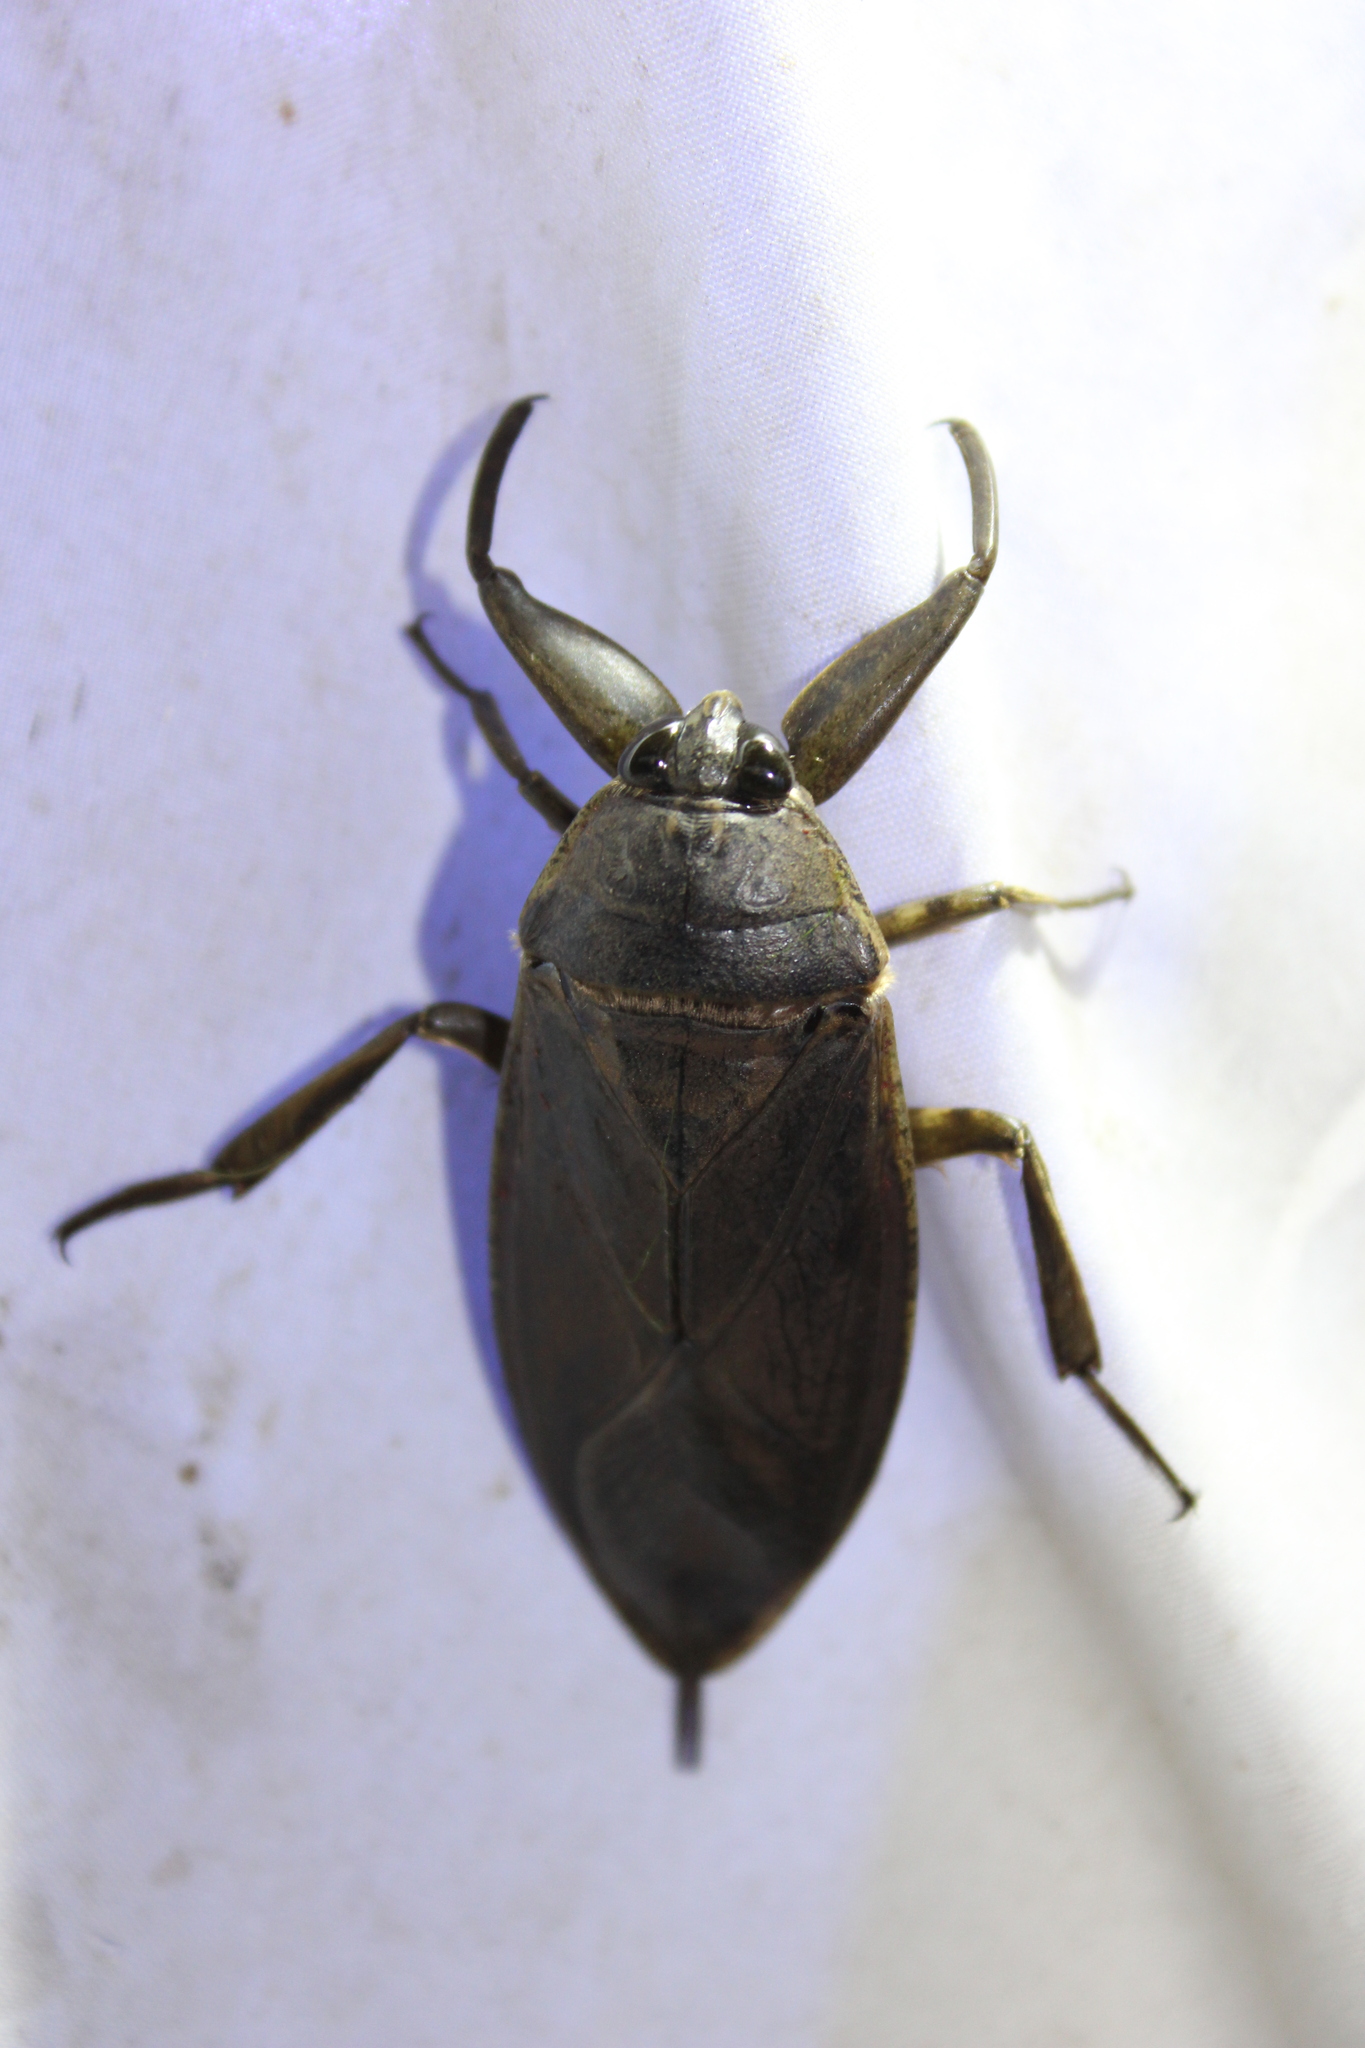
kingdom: Animalia
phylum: Arthropoda
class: Insecta
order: Hemiptera
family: Belostomatidae
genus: Lethocerus
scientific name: Lethocerus americanus
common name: Giant water bug
